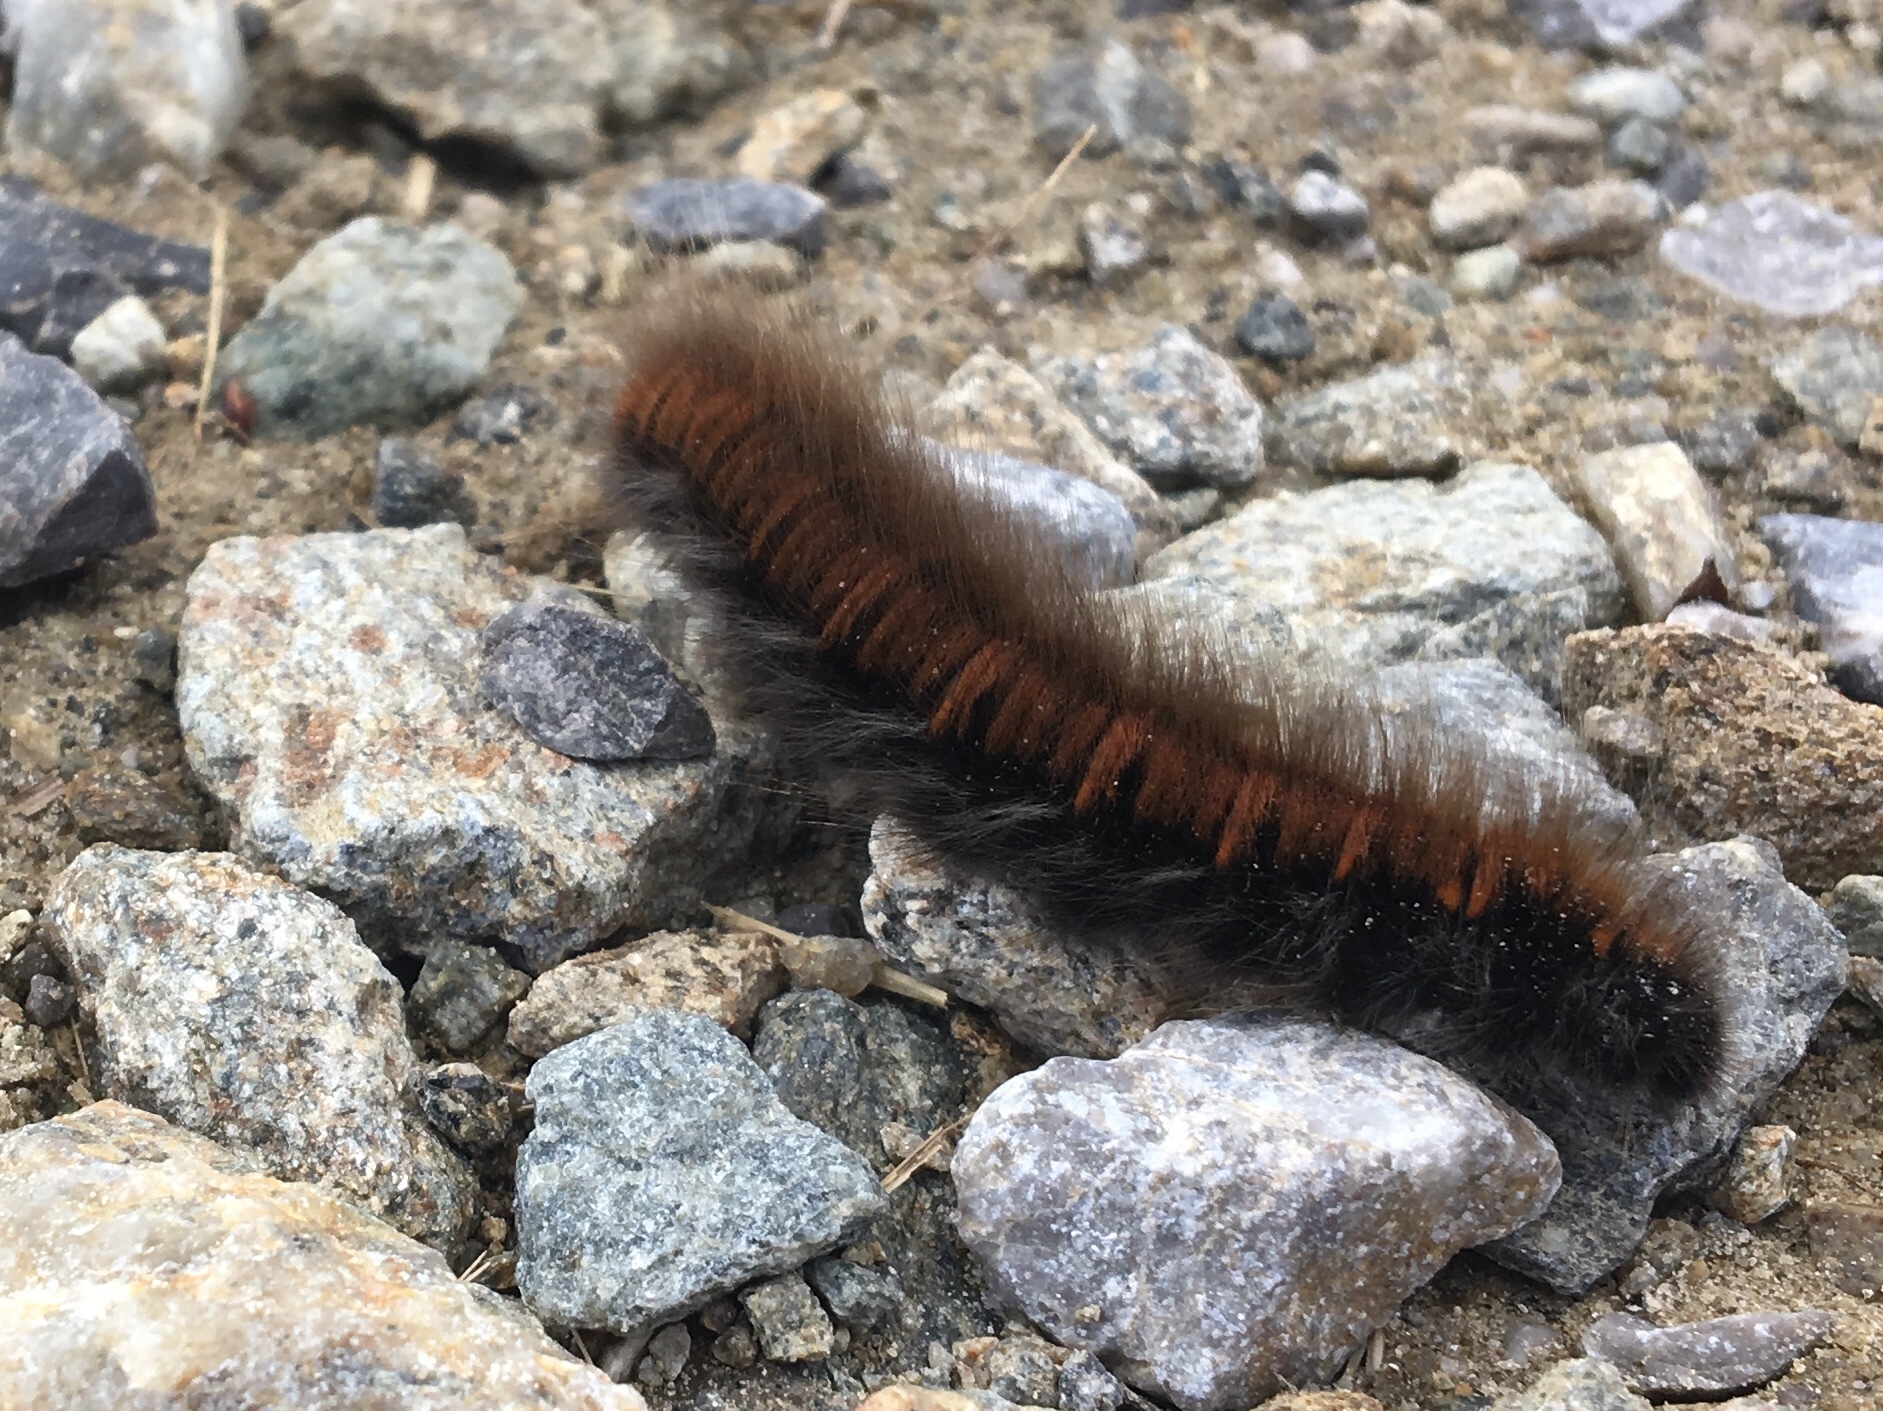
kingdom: Animalia
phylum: Arthropoda
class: Insecta
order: Lepidoptera
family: Lasiocampidae
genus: Macrothylacia
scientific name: Macrothylacia rubi
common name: Fox moth
